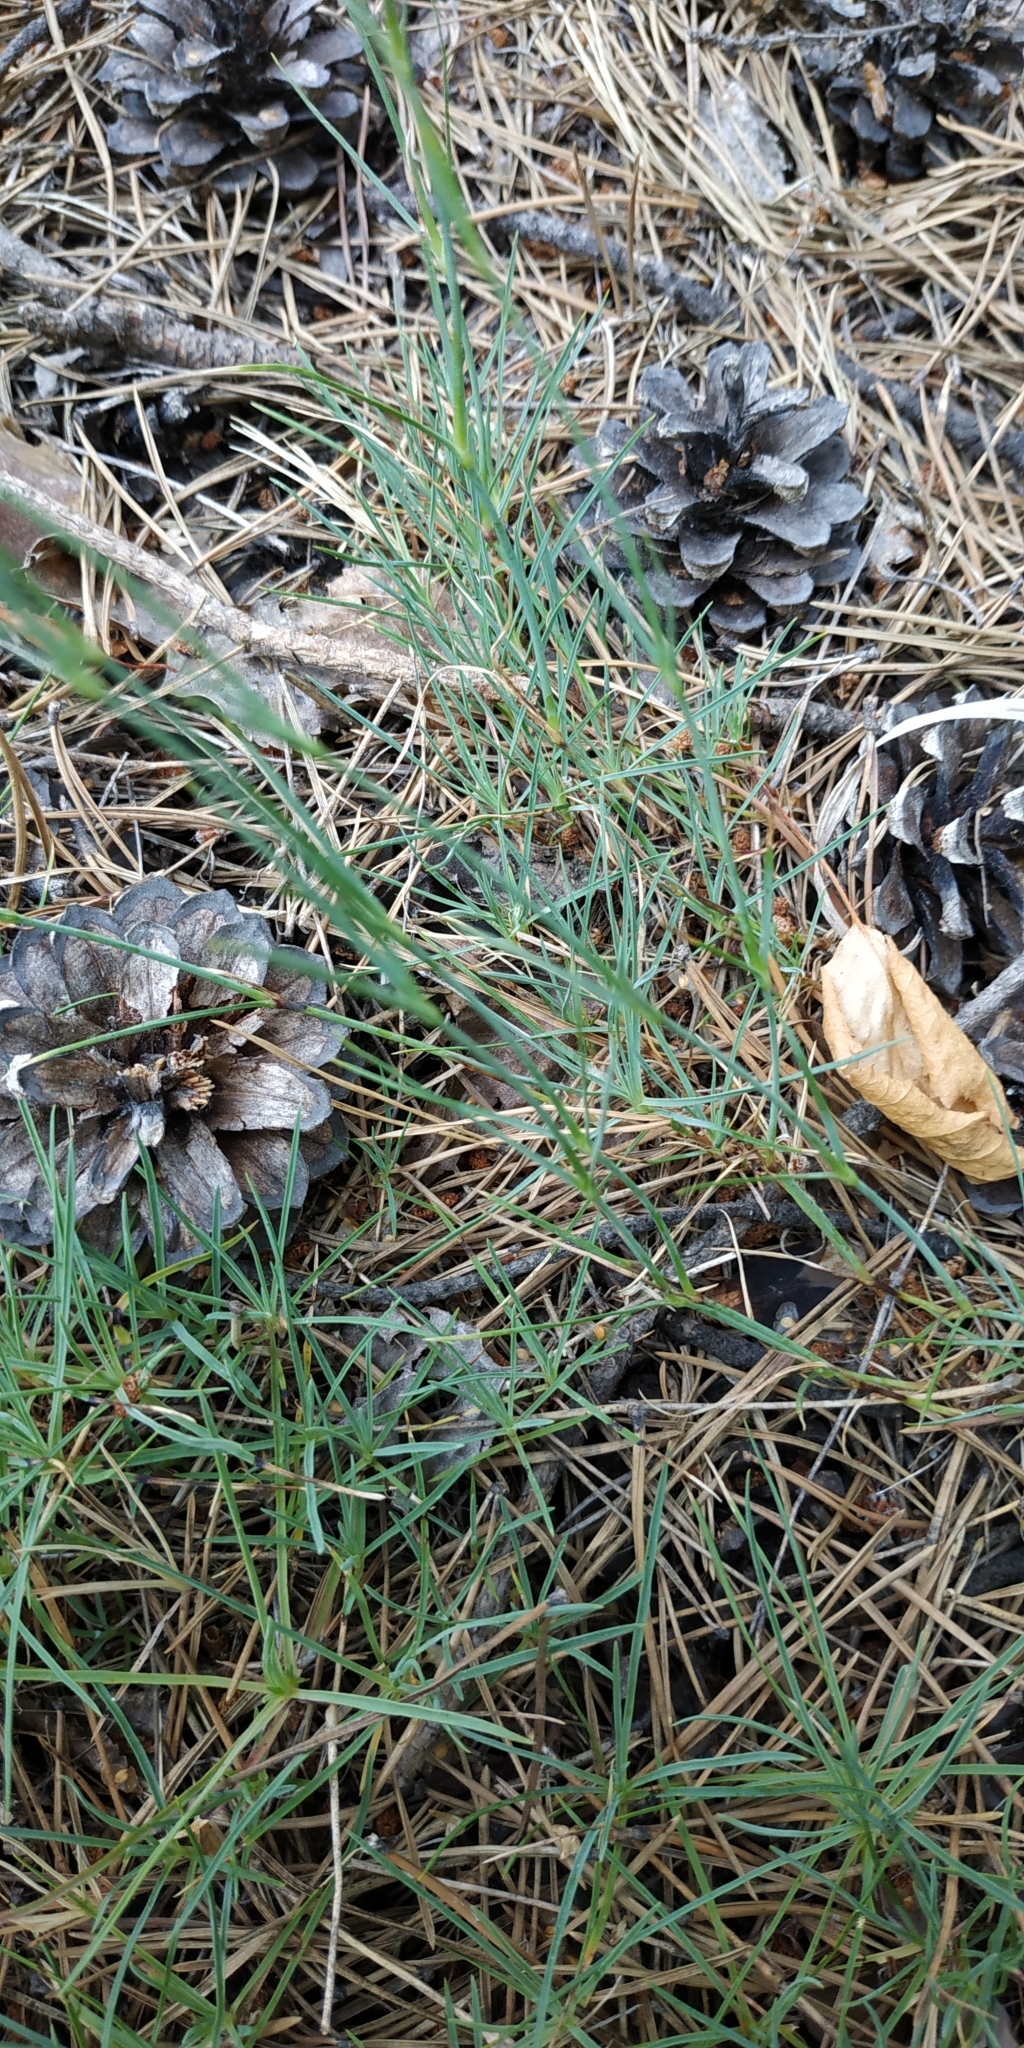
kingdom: Plantae
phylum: Tracheophyta
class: Magnoliopsida
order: Caryophyllales
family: Caryophyllaceae
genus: Dianthus
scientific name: Dianthus arenarius
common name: Stone pink
